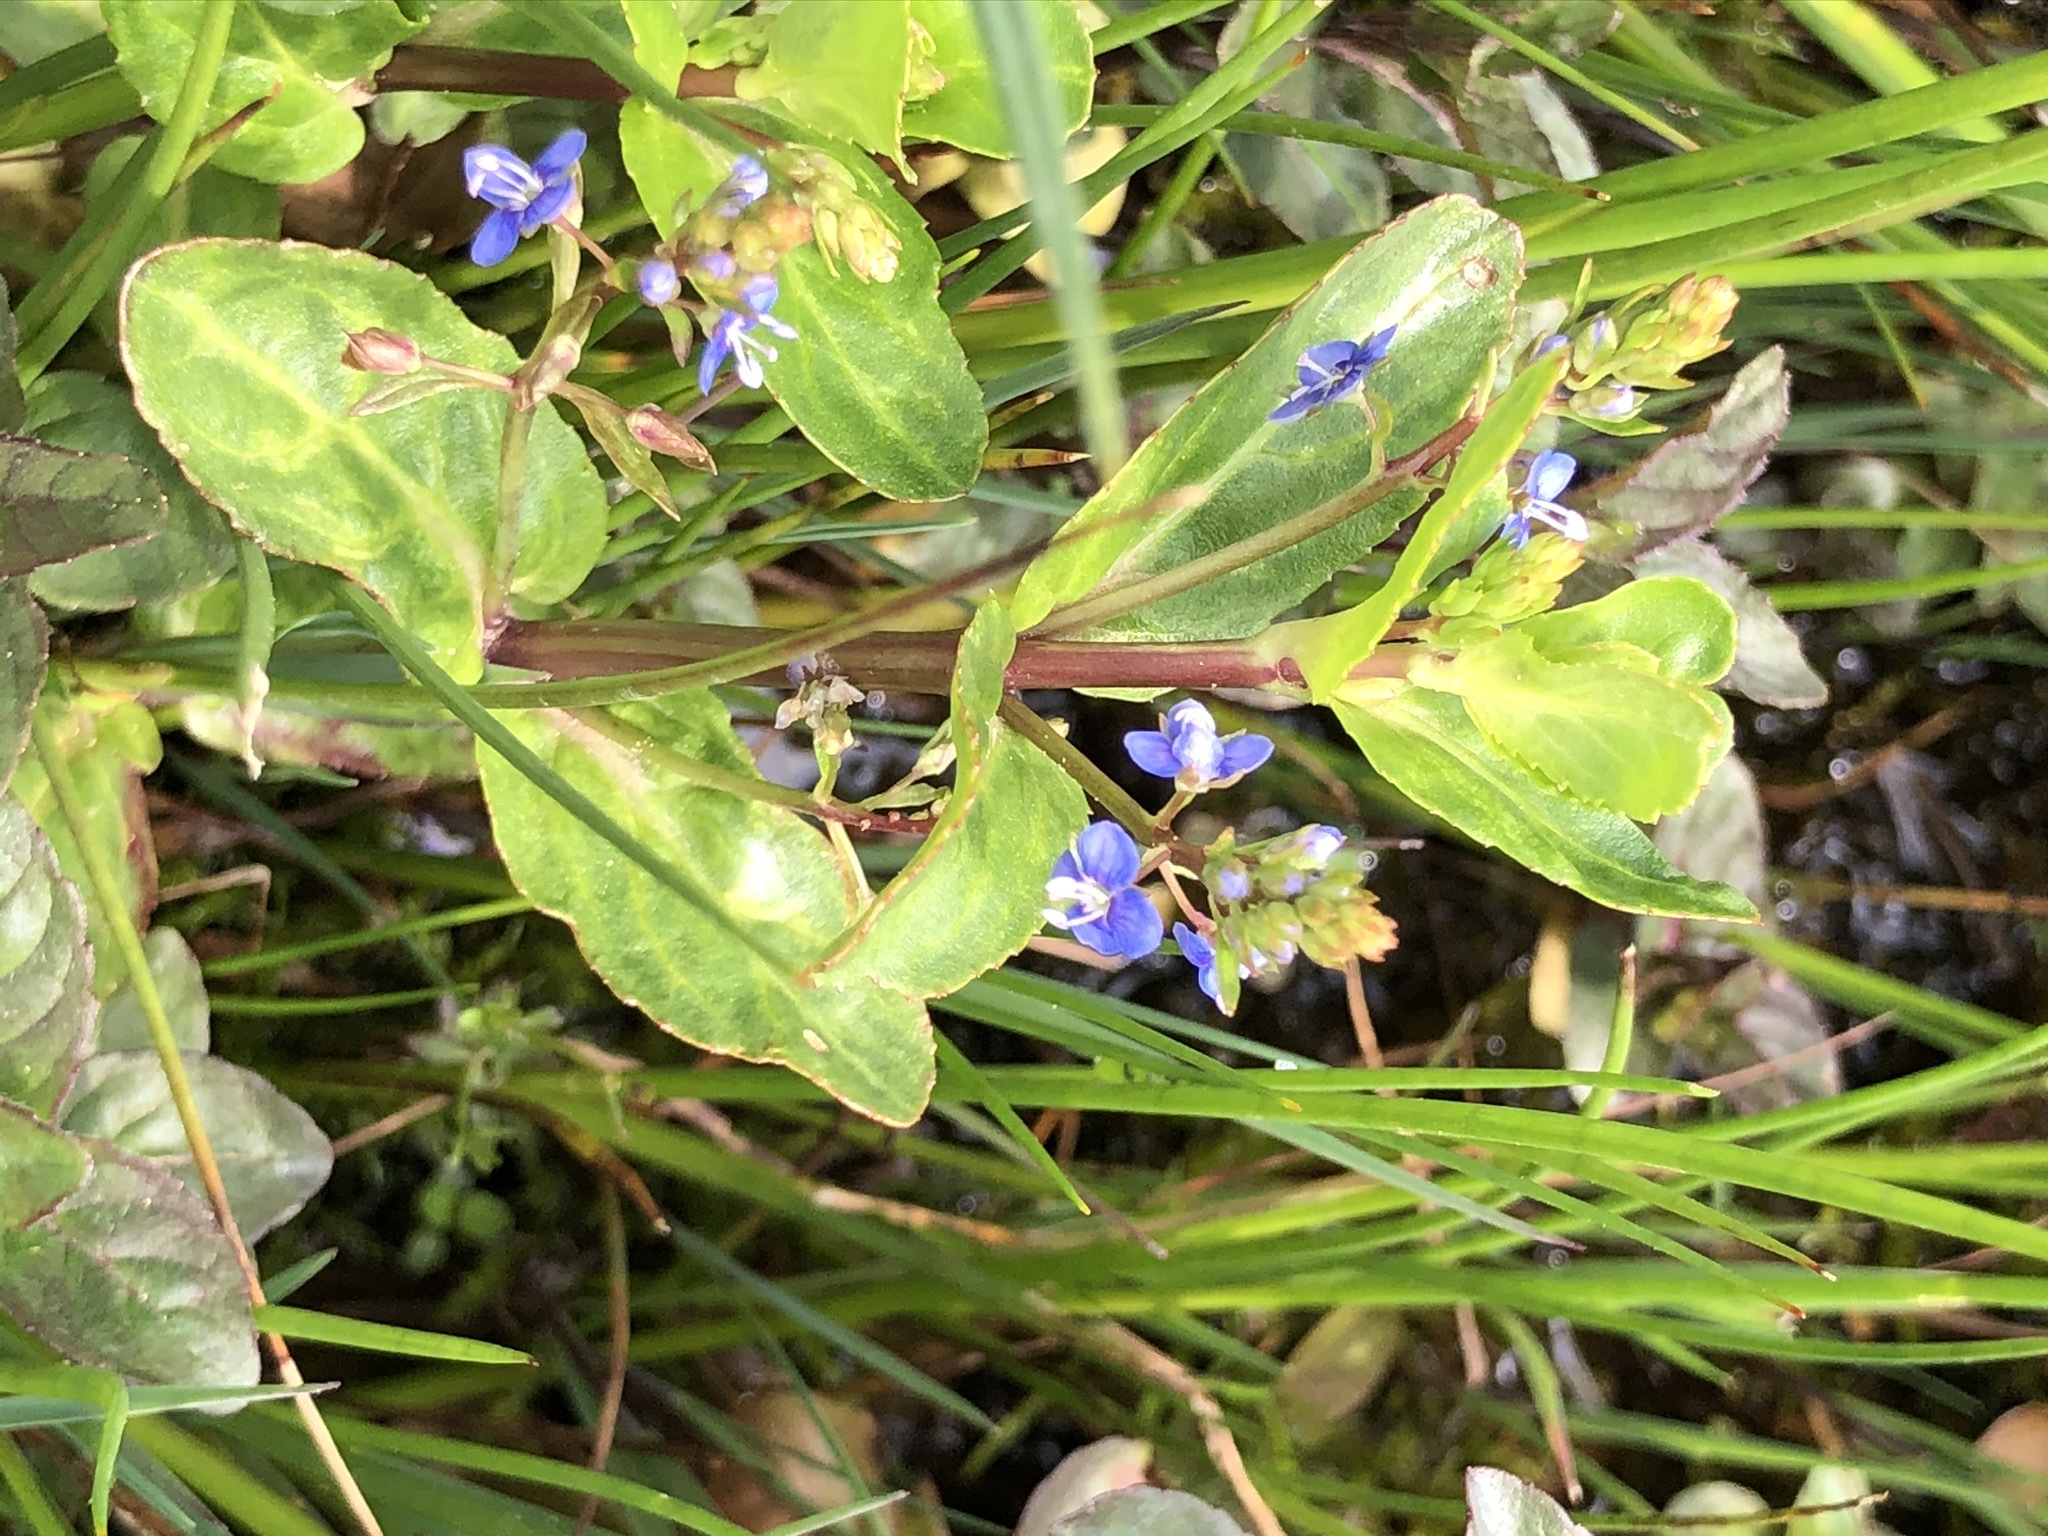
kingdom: Plantae
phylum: Tracheophyta
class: Magnoliopsida
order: Lamiales
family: Plantaginaceae
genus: Veronica
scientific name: Veronica beccabunga
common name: Brooklime
